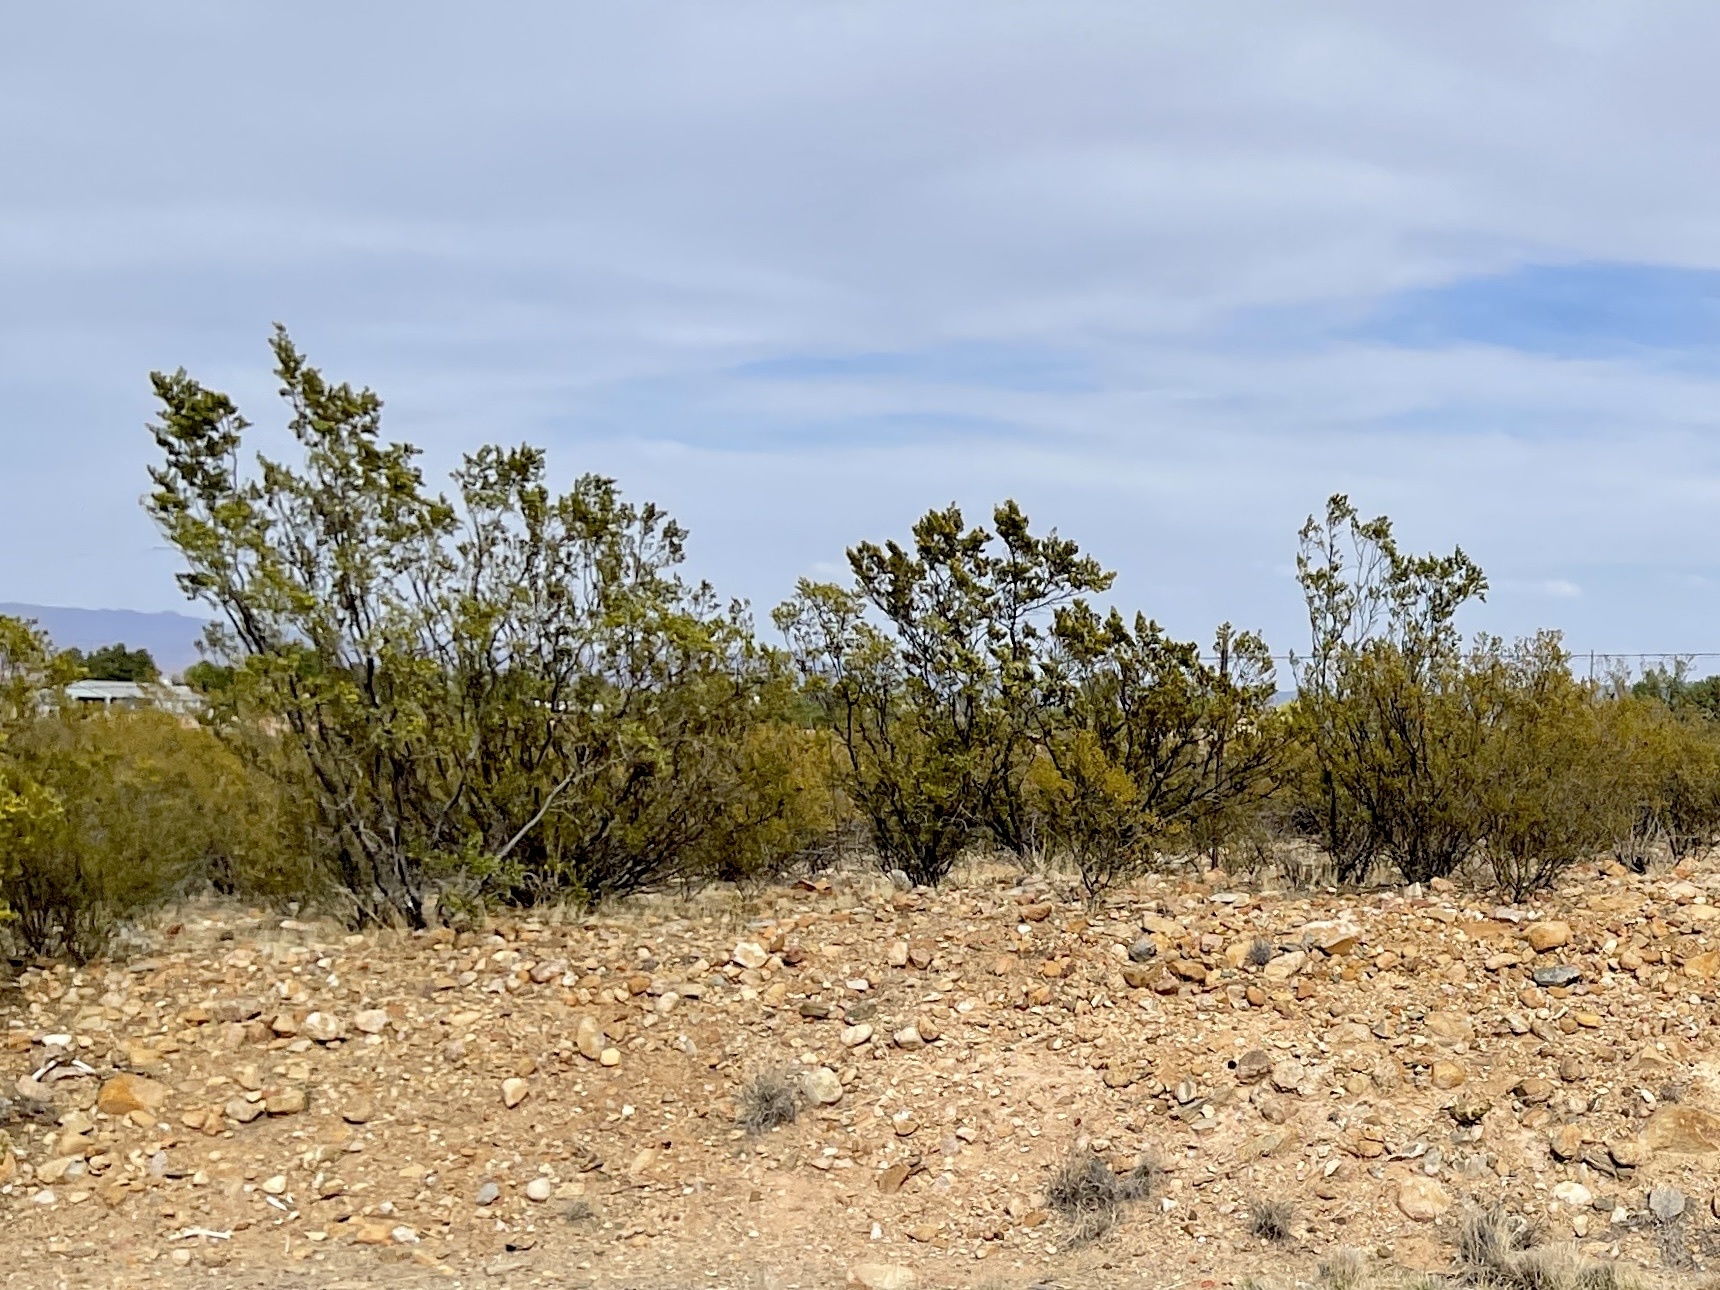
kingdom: Plantae
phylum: Tracheophyta
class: Magnoliopsida
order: Zygophyllales
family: Zygophyllaceae
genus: Larrea
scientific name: Larrea tridentata
